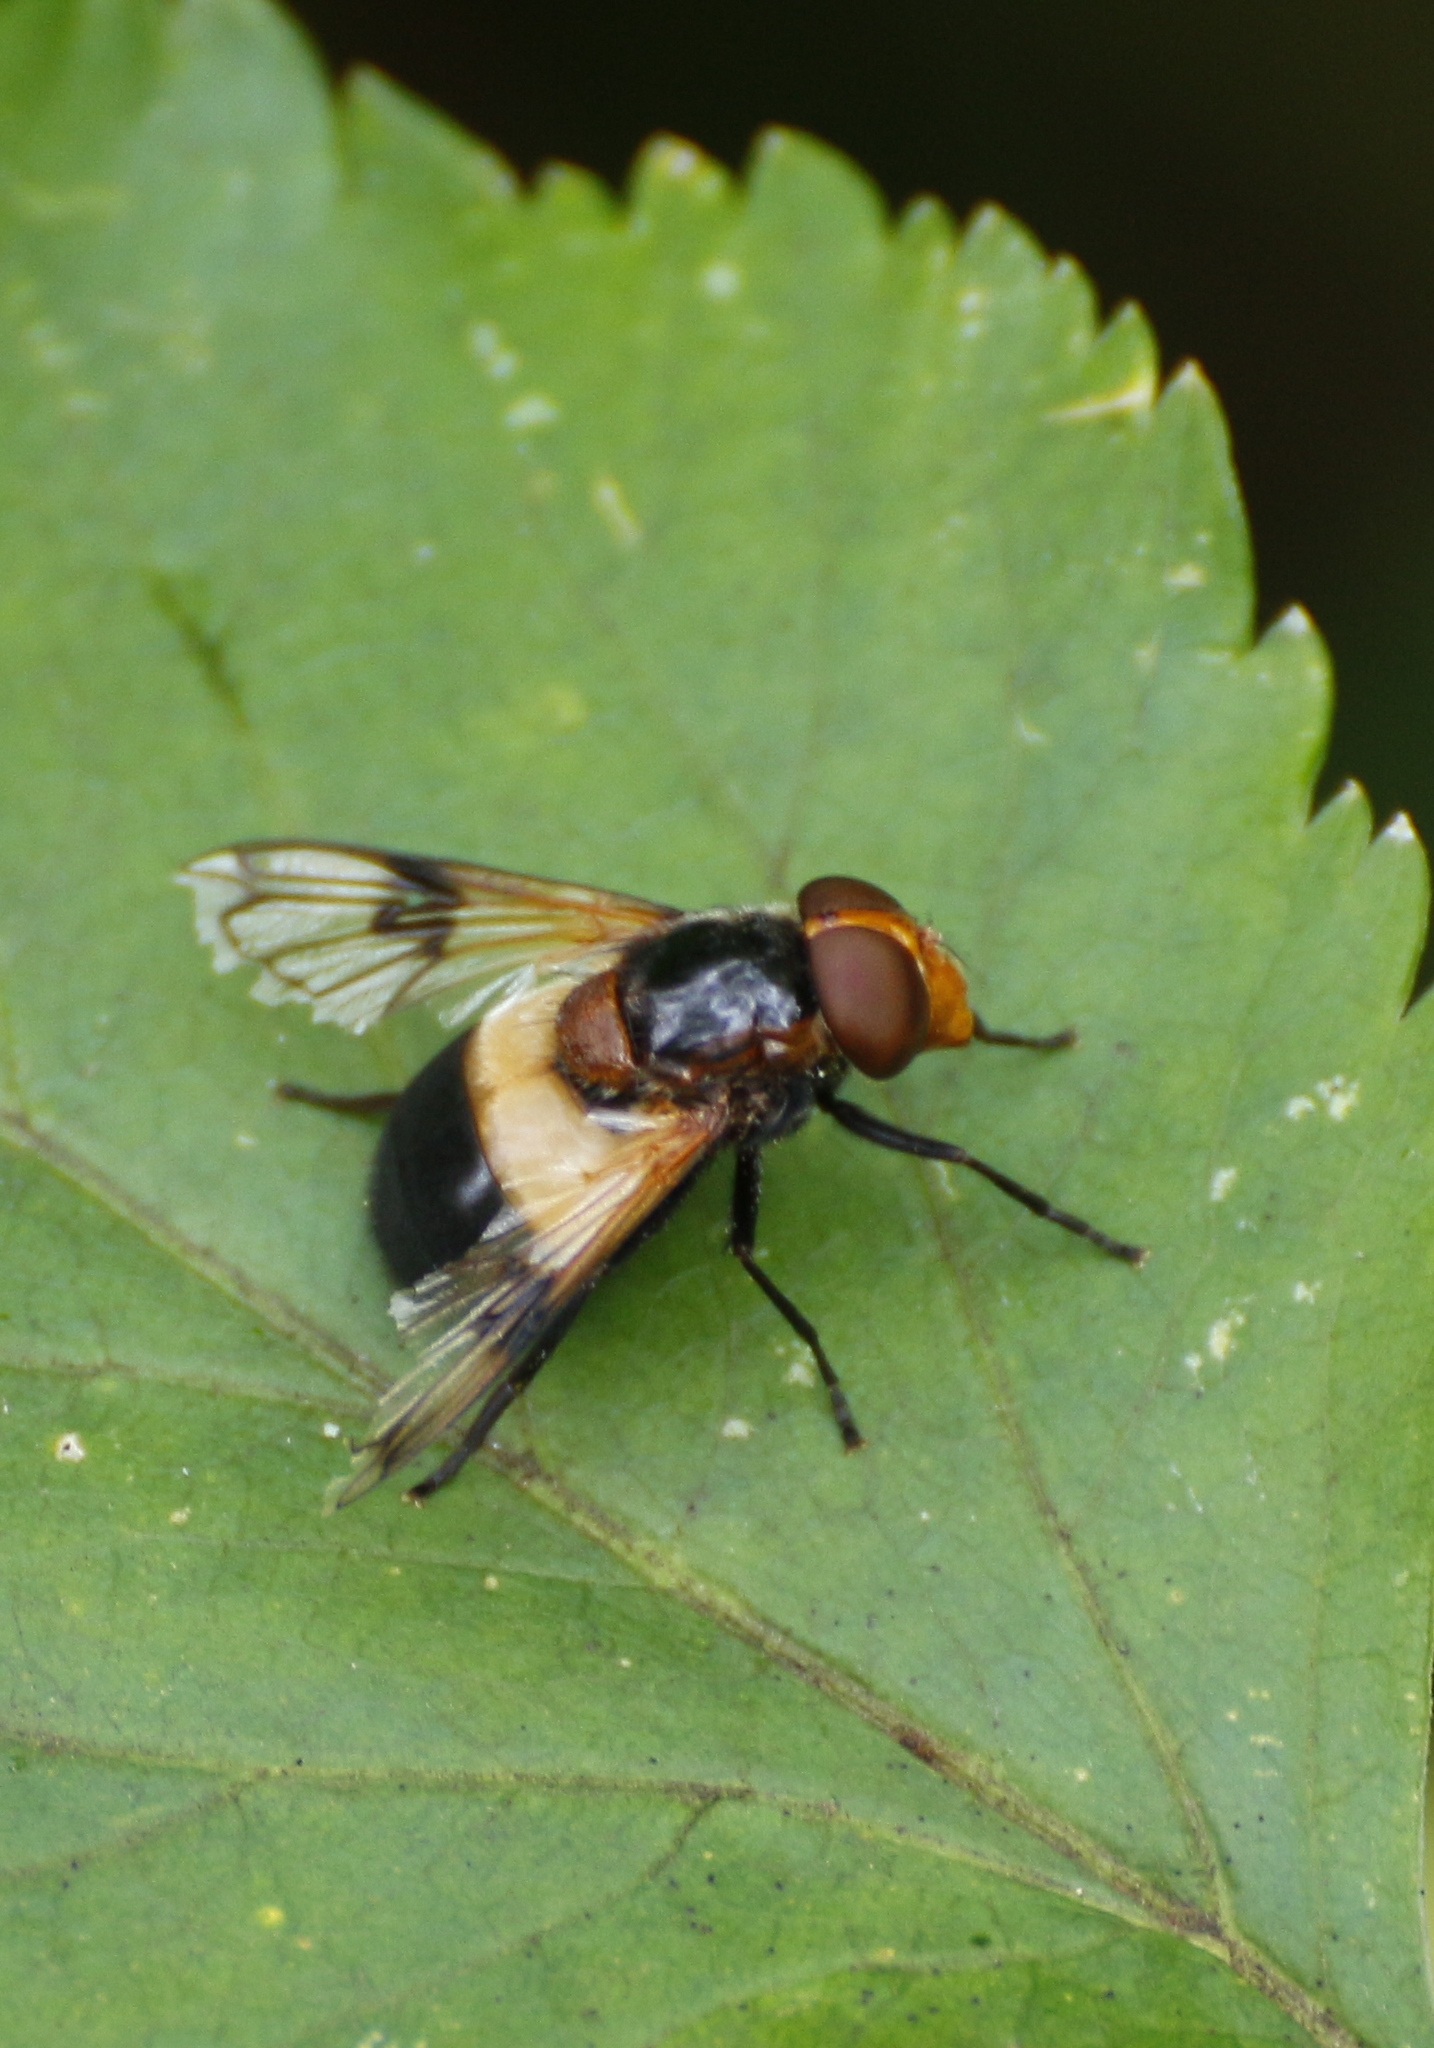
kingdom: Animalia
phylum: Arthropoda
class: Insecta
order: Diptera
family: Syrphidae
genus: Volucella
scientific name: Volucella pellucens
